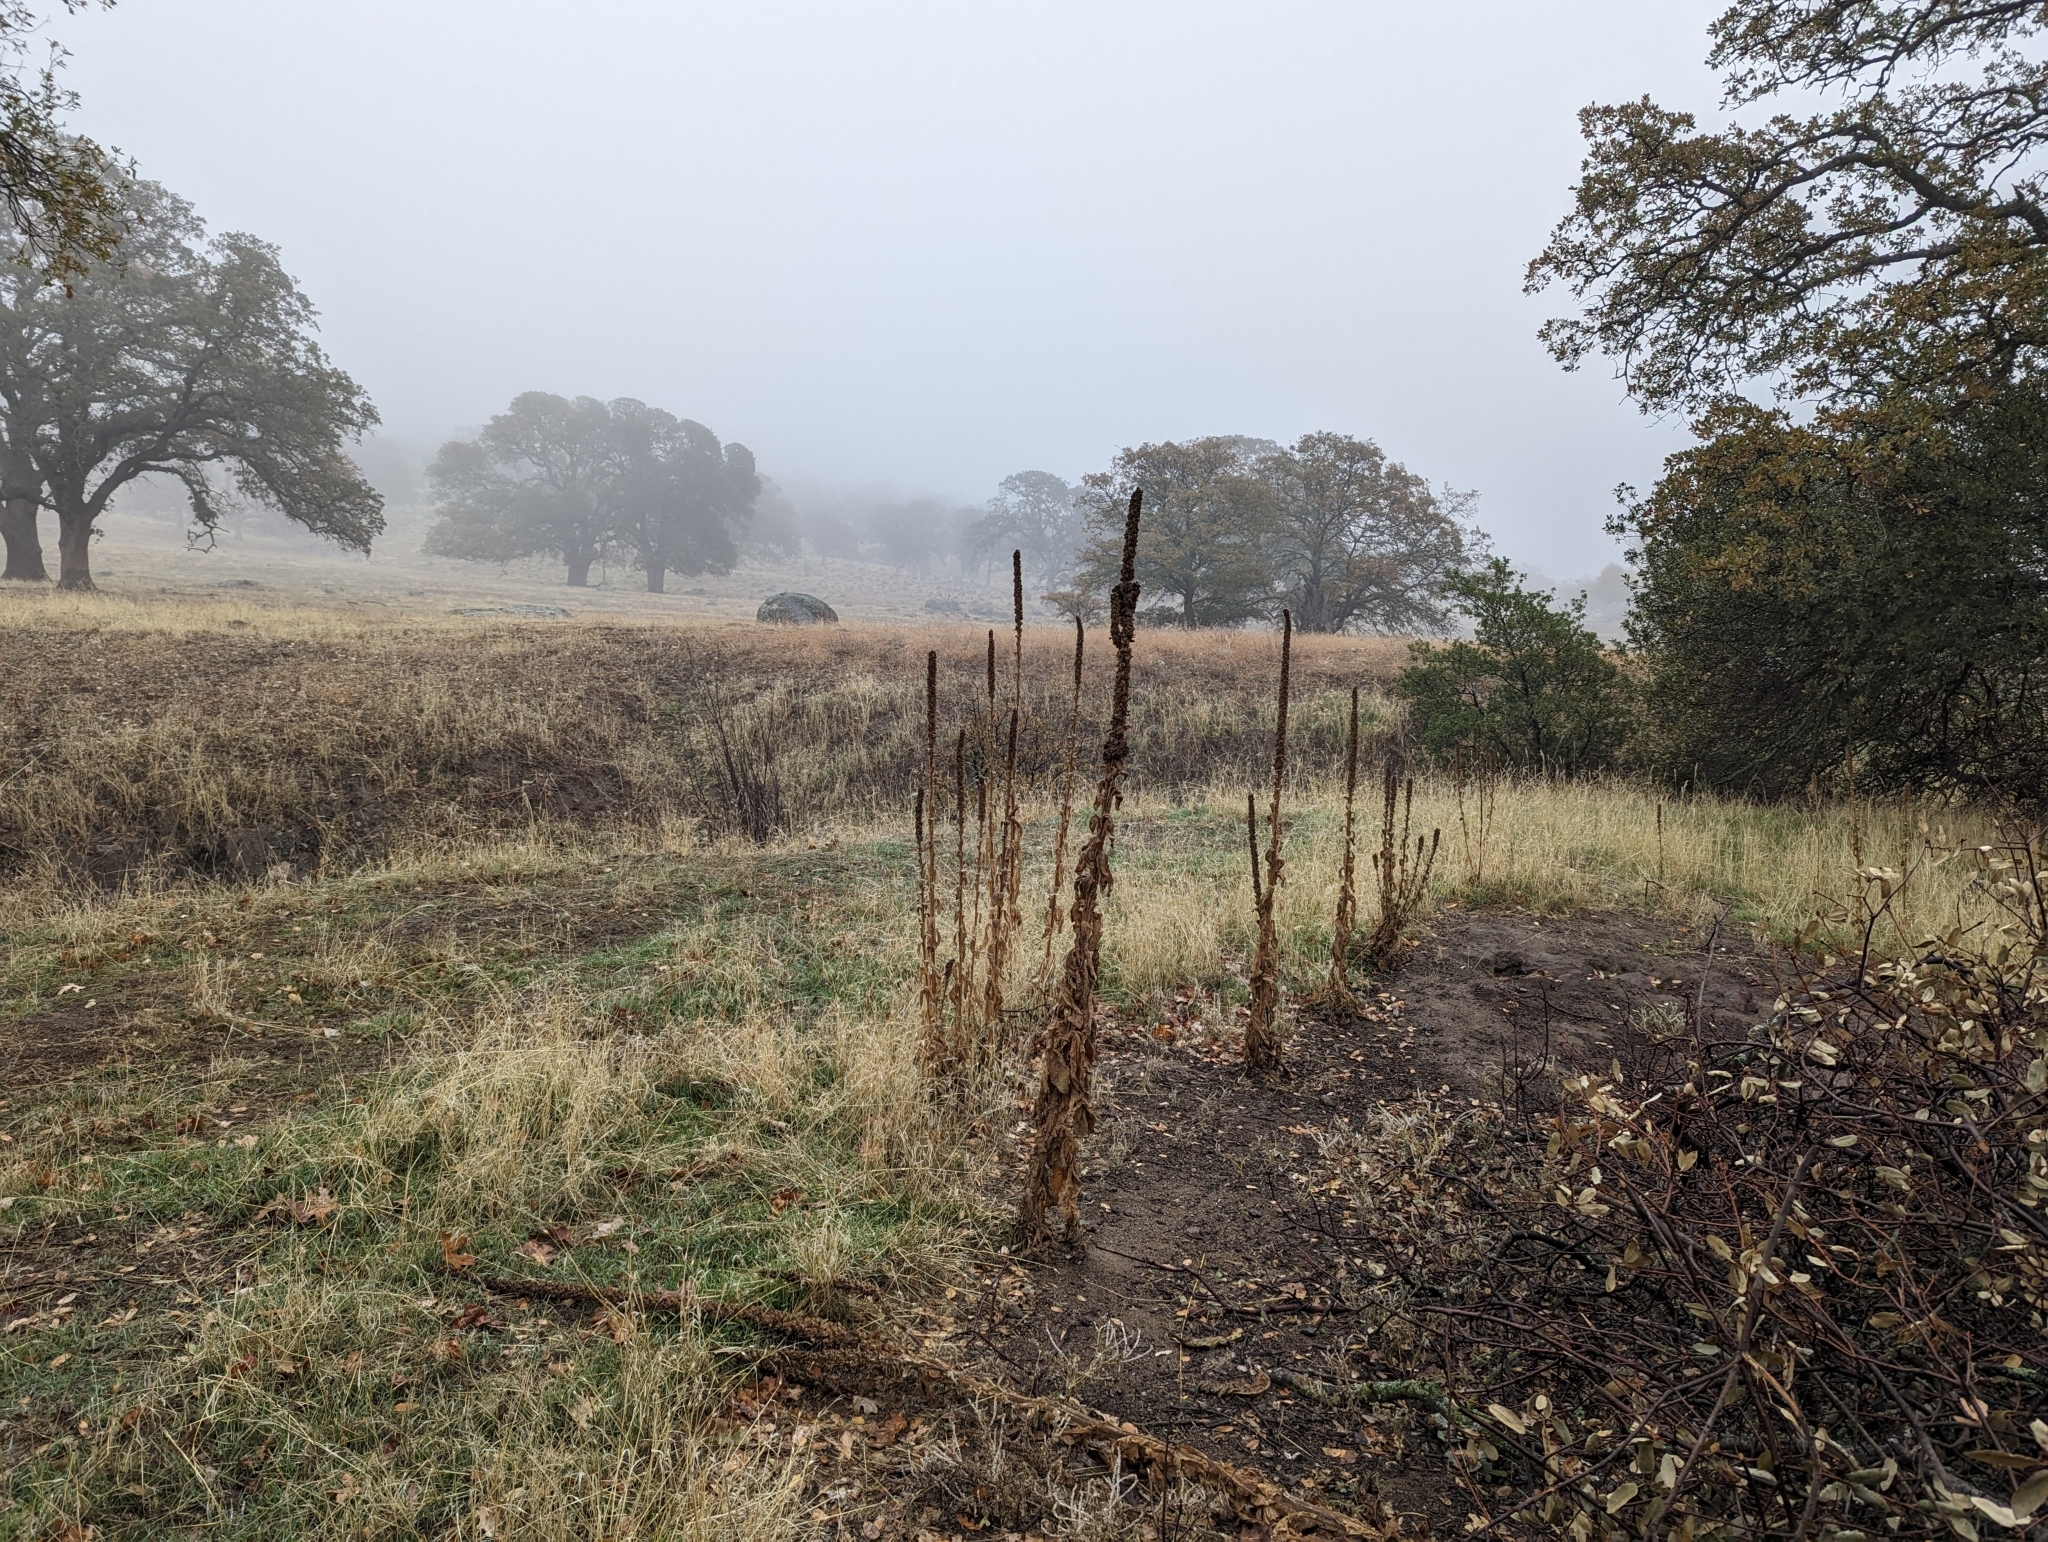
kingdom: Plantae
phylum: Tracheophyta
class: Magnoliopsida
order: Lamiales
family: Scrophulariaceae
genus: Verbascum
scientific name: Verbascum thapsus
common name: Common mullein
